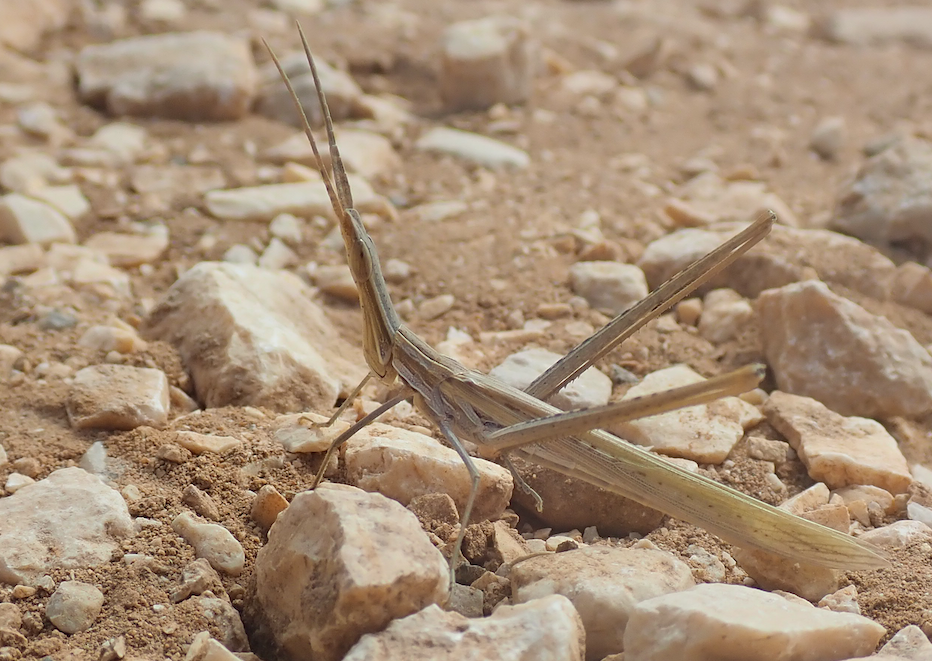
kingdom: Animalia
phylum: Arthropoda
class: Insecta
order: Orthoptera
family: Acrididae
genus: Acrida
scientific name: Acrida ungarica
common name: Common cone-headed grasshopper
